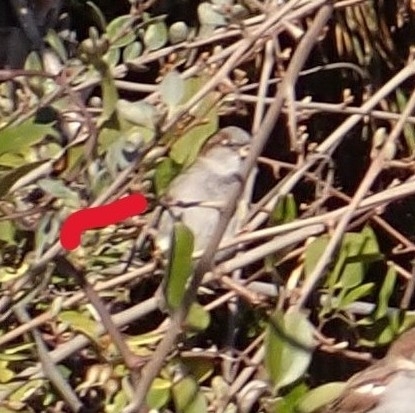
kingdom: Animalia
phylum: Chordata
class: Aves
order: Passeriformes
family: Passeridae
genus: Passer
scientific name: Passer domesticus
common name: House sparrow
